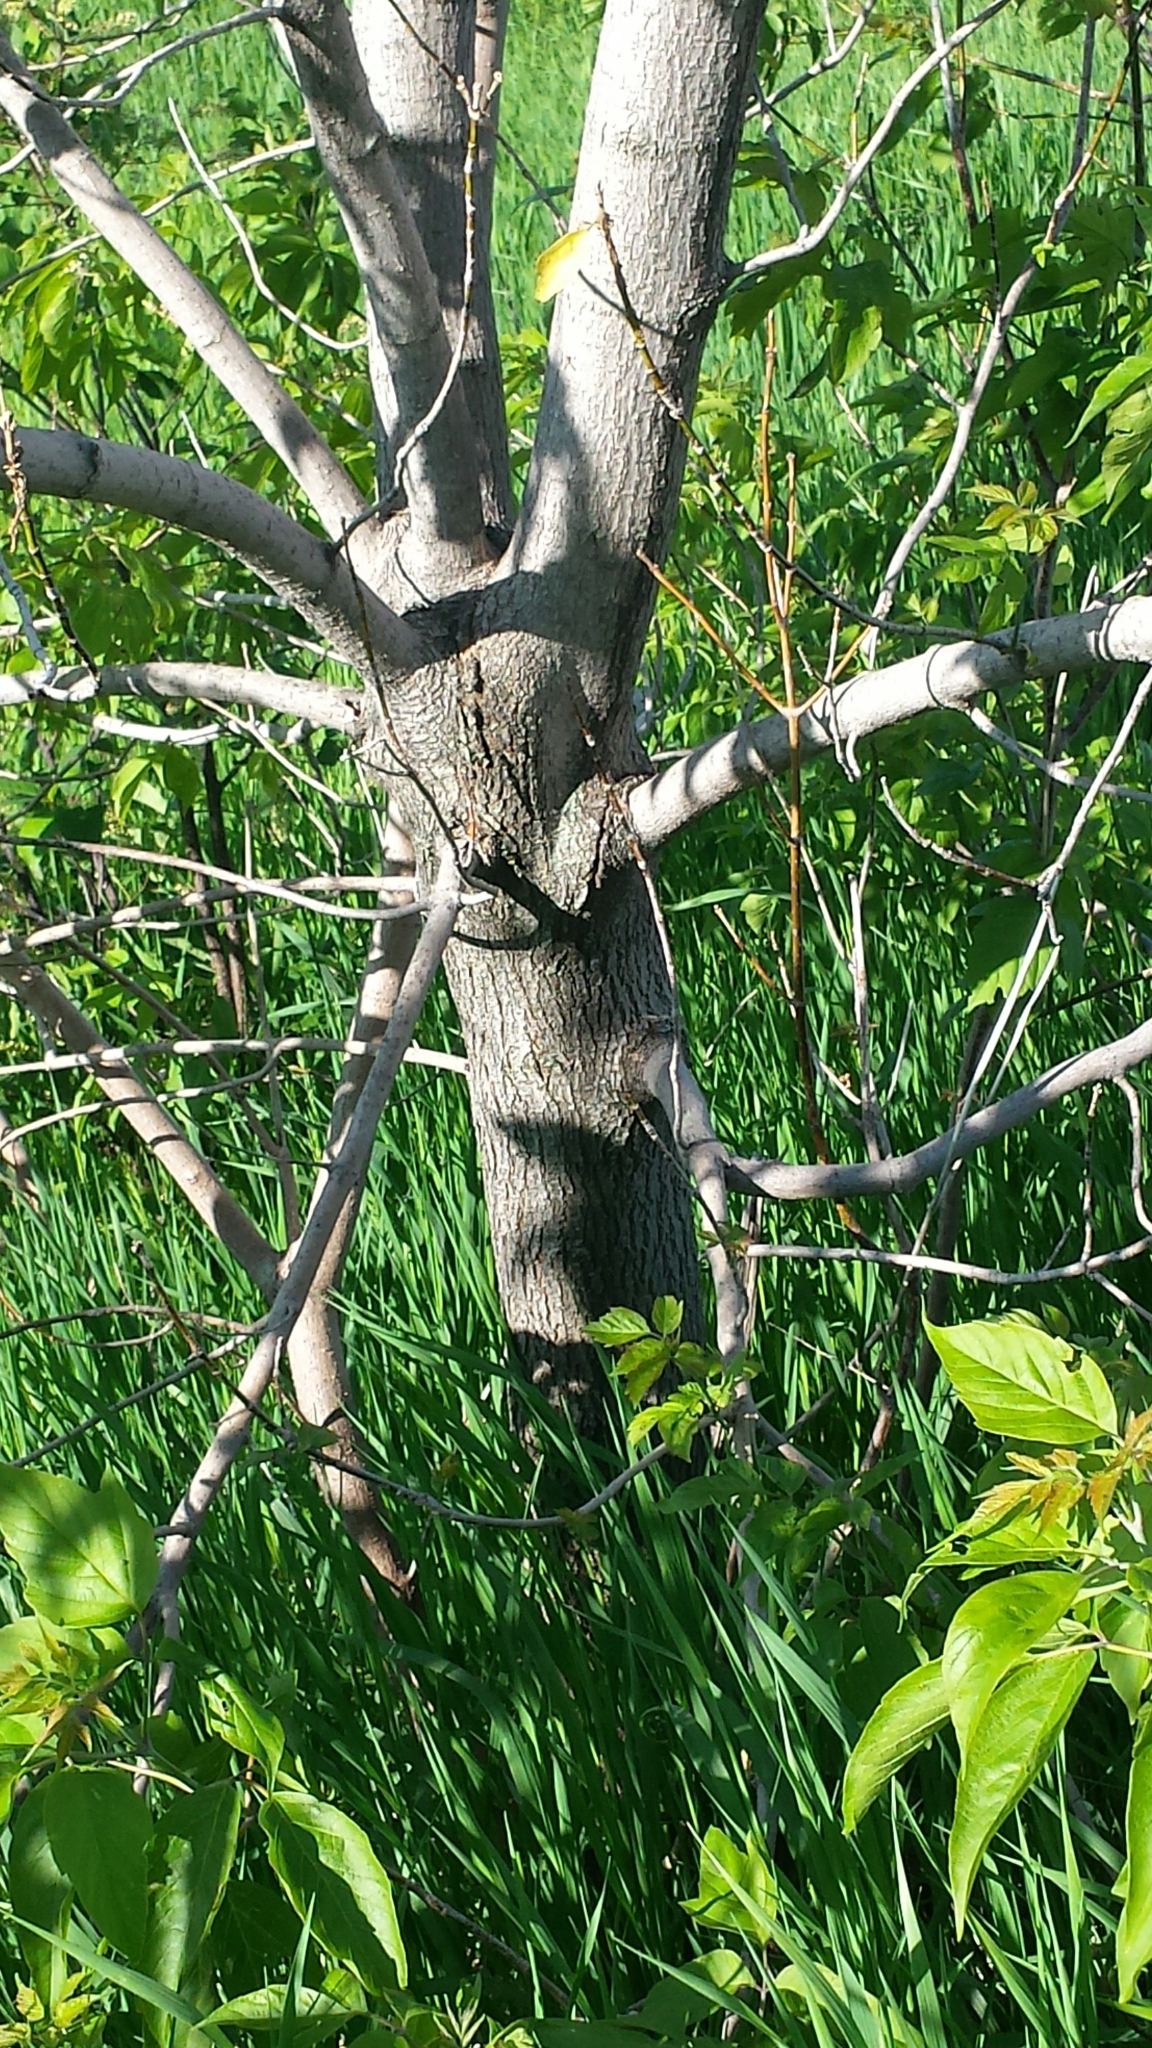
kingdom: Plantae
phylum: Tracheophyta
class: Magnoliopsida
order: Sapindales
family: Sapindaceae
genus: Acer
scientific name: Acer negundo
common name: Ashleaf maple
